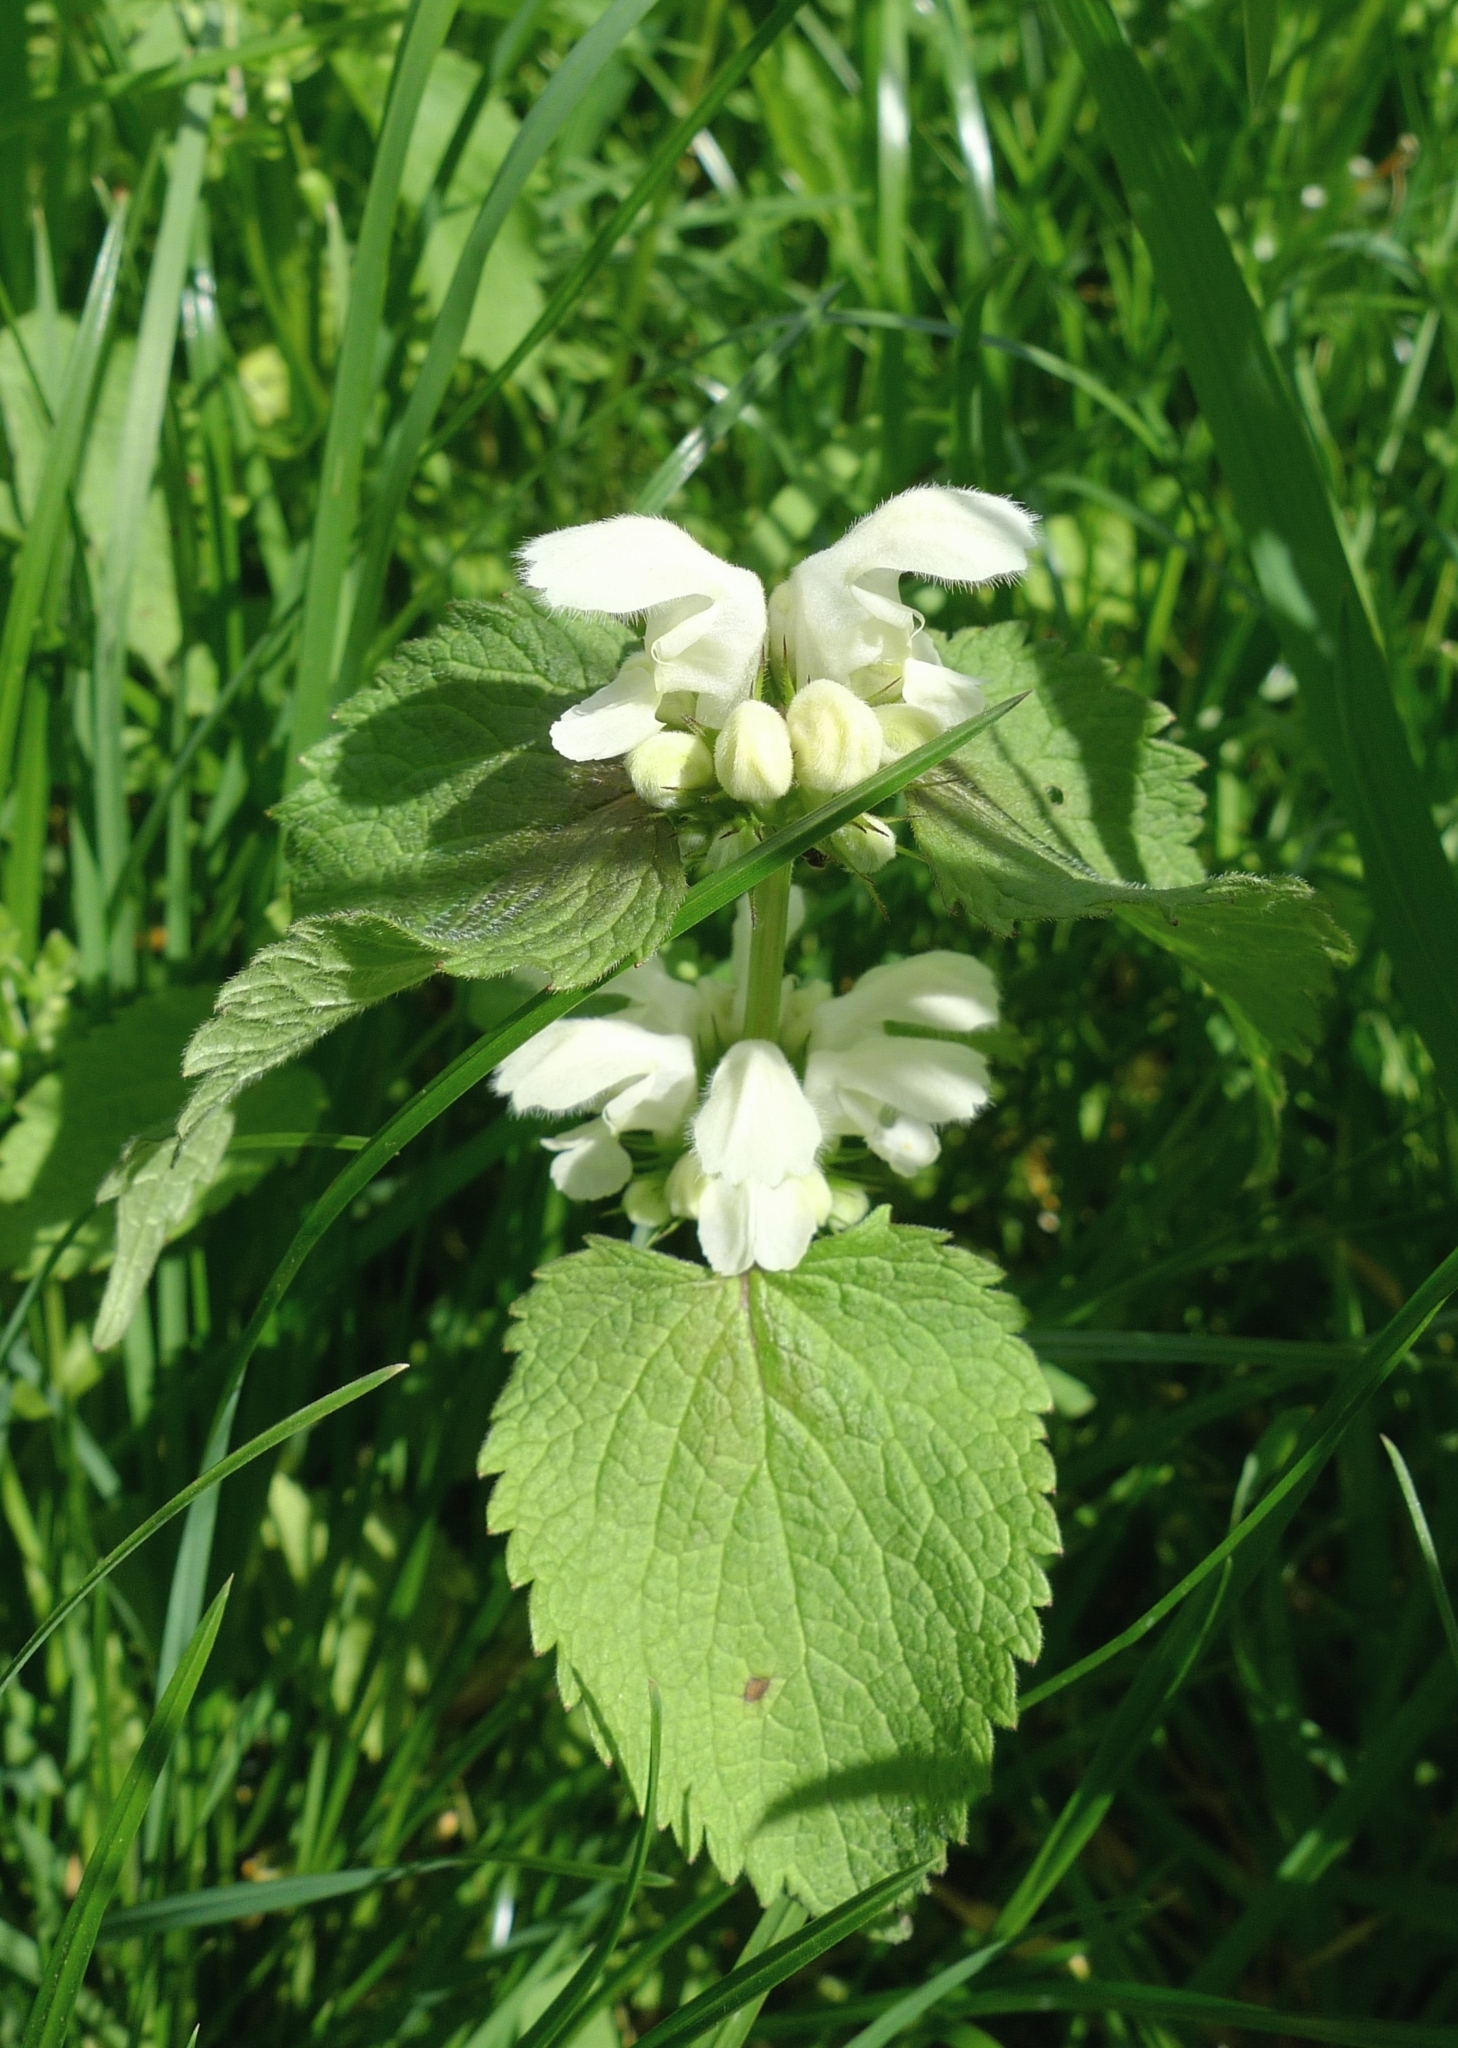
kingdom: Plantae
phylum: Tracheophyta
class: Magnoliopsida
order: Lamiales
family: Lamiaceae
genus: Lamium
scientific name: Lamium album
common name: White dead-nettle
